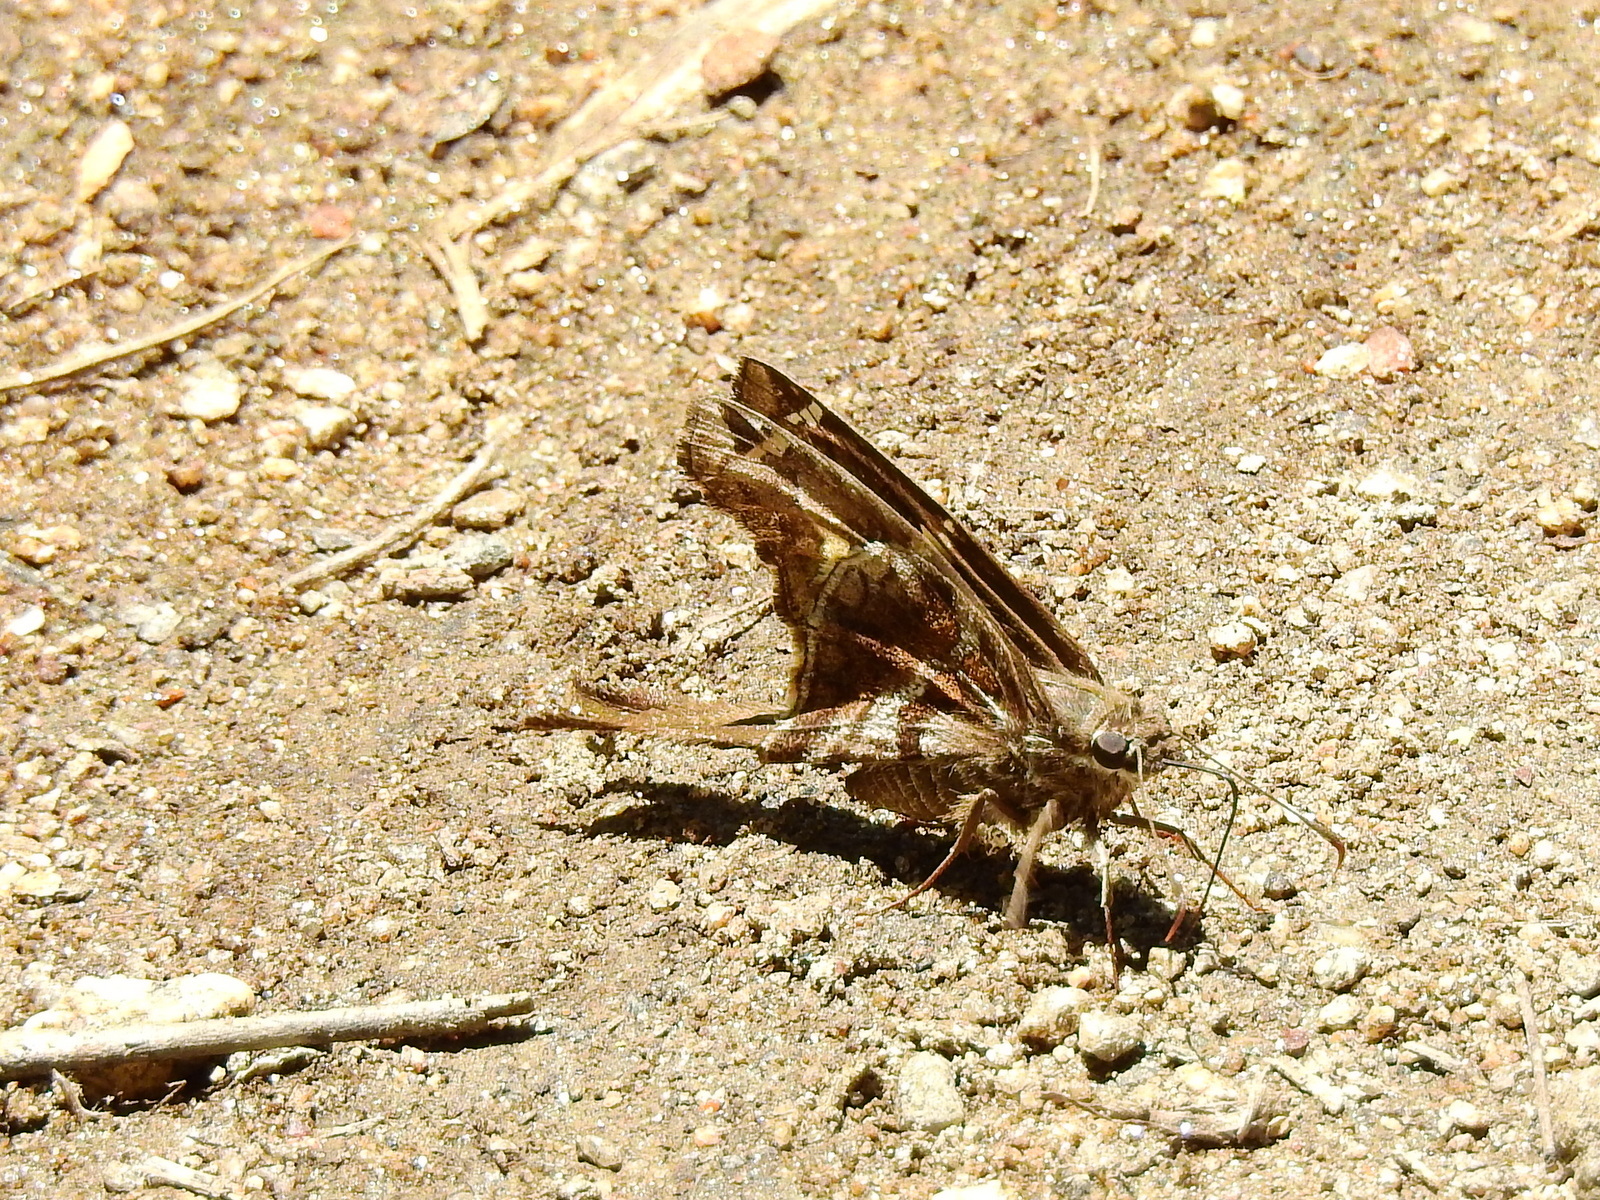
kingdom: Animalia
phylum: Arthropoda
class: Insecta
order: Lepidoptera
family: Hesperiidae
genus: Chioides
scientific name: Chioides catillus
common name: Silverbanded skipper
